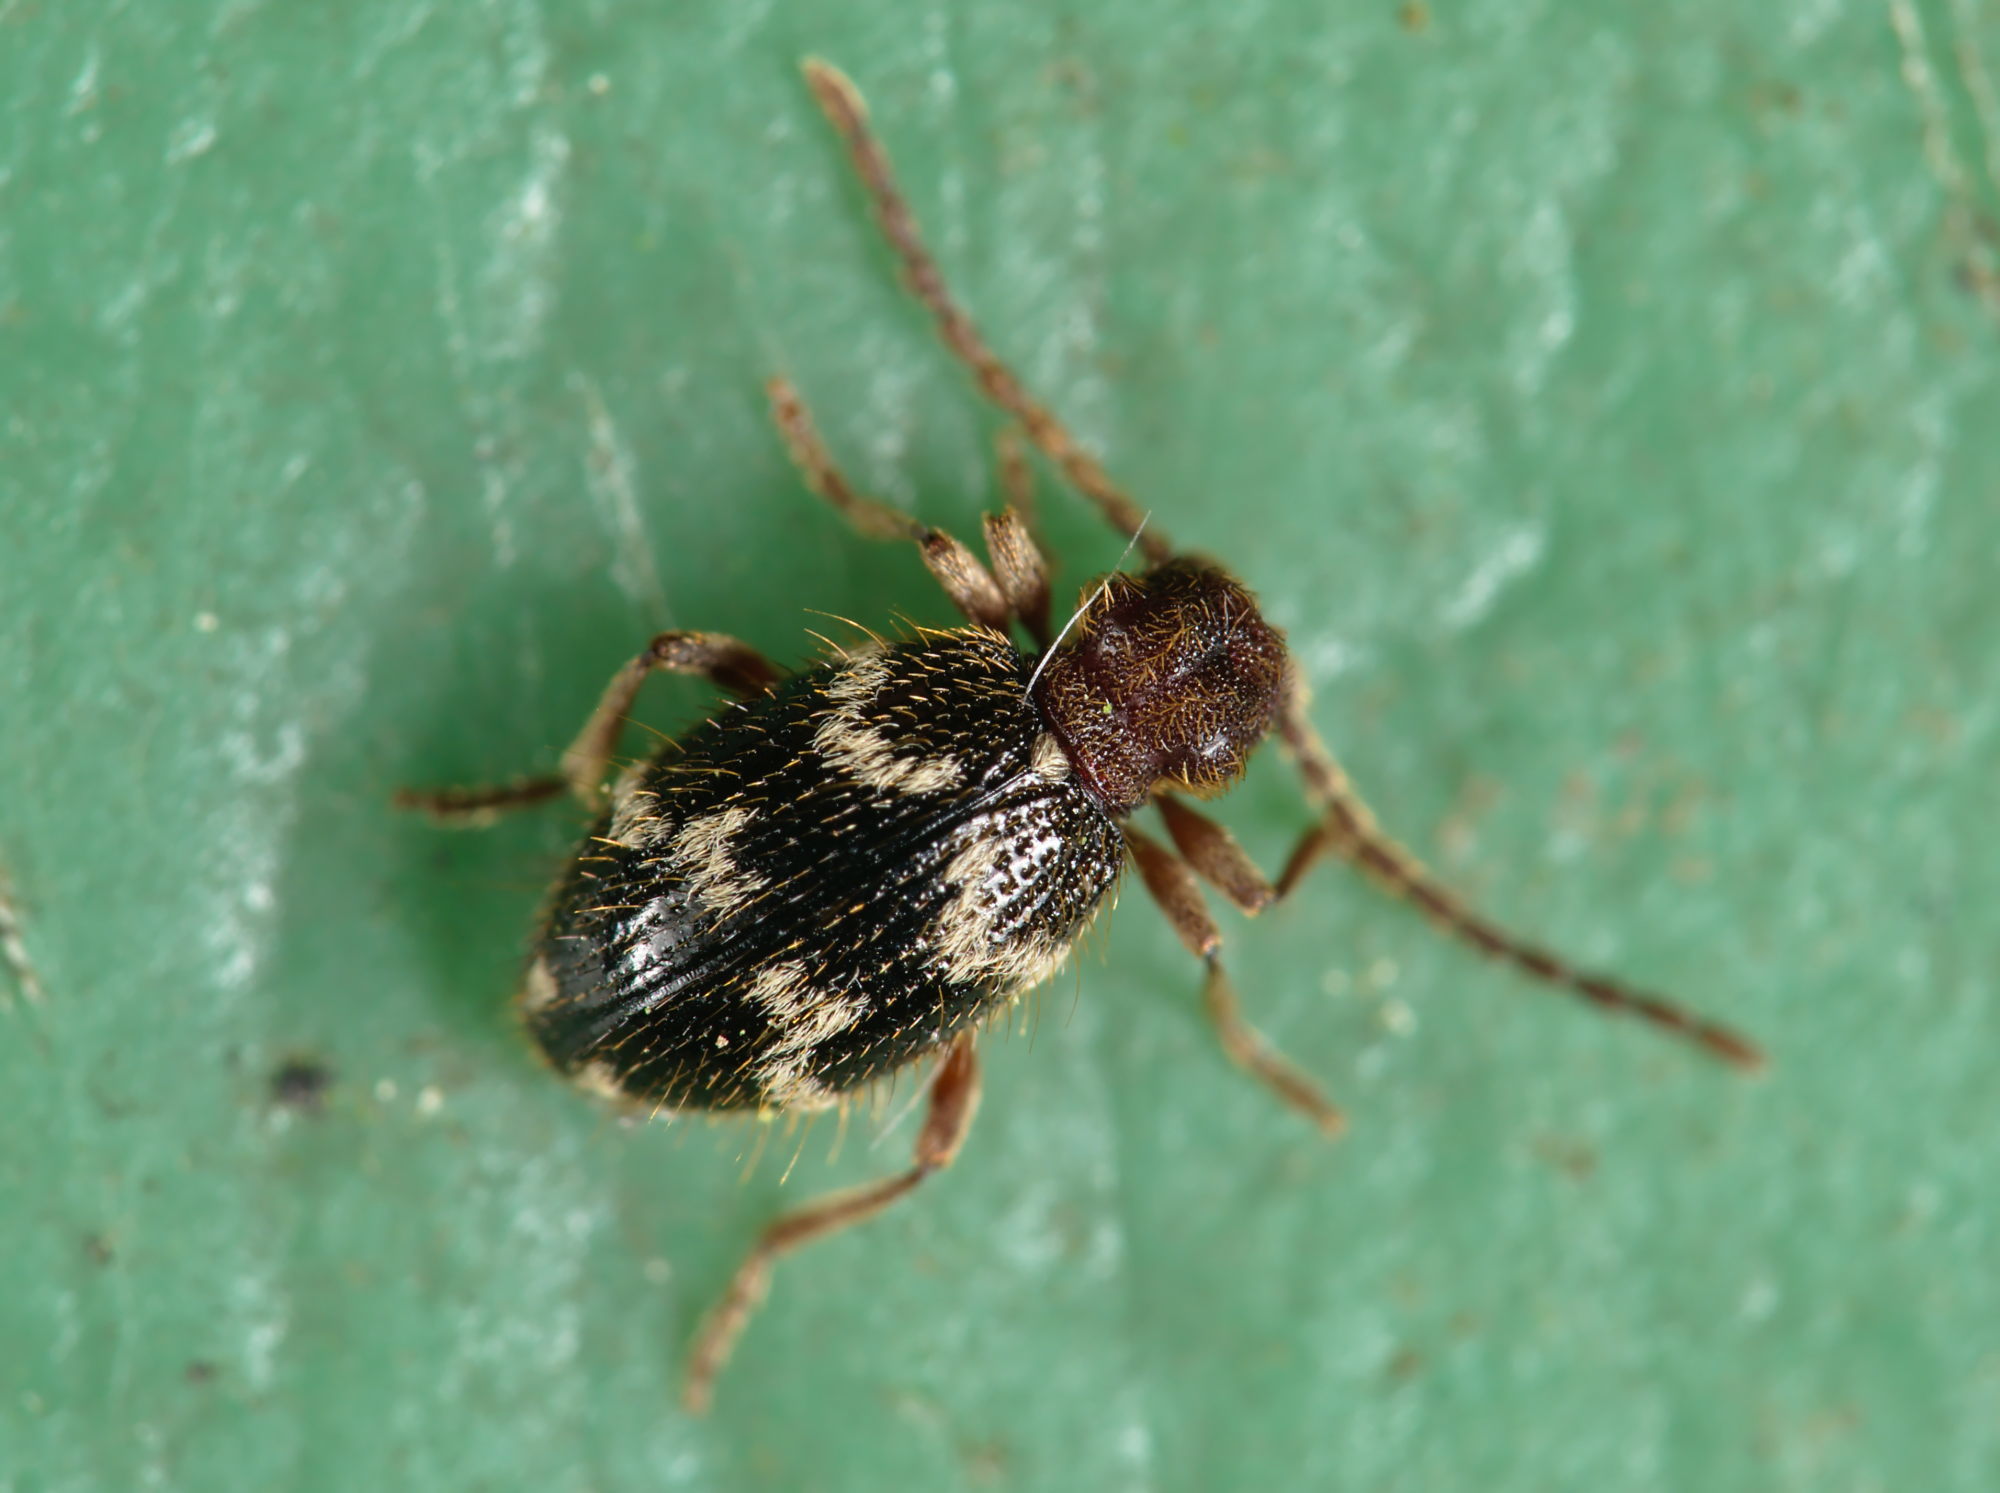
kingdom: Animalia
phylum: Arthropoda
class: Insecta
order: Coleoptera
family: Ptinidae
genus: Ptinus
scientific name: Ptinus rufipes
